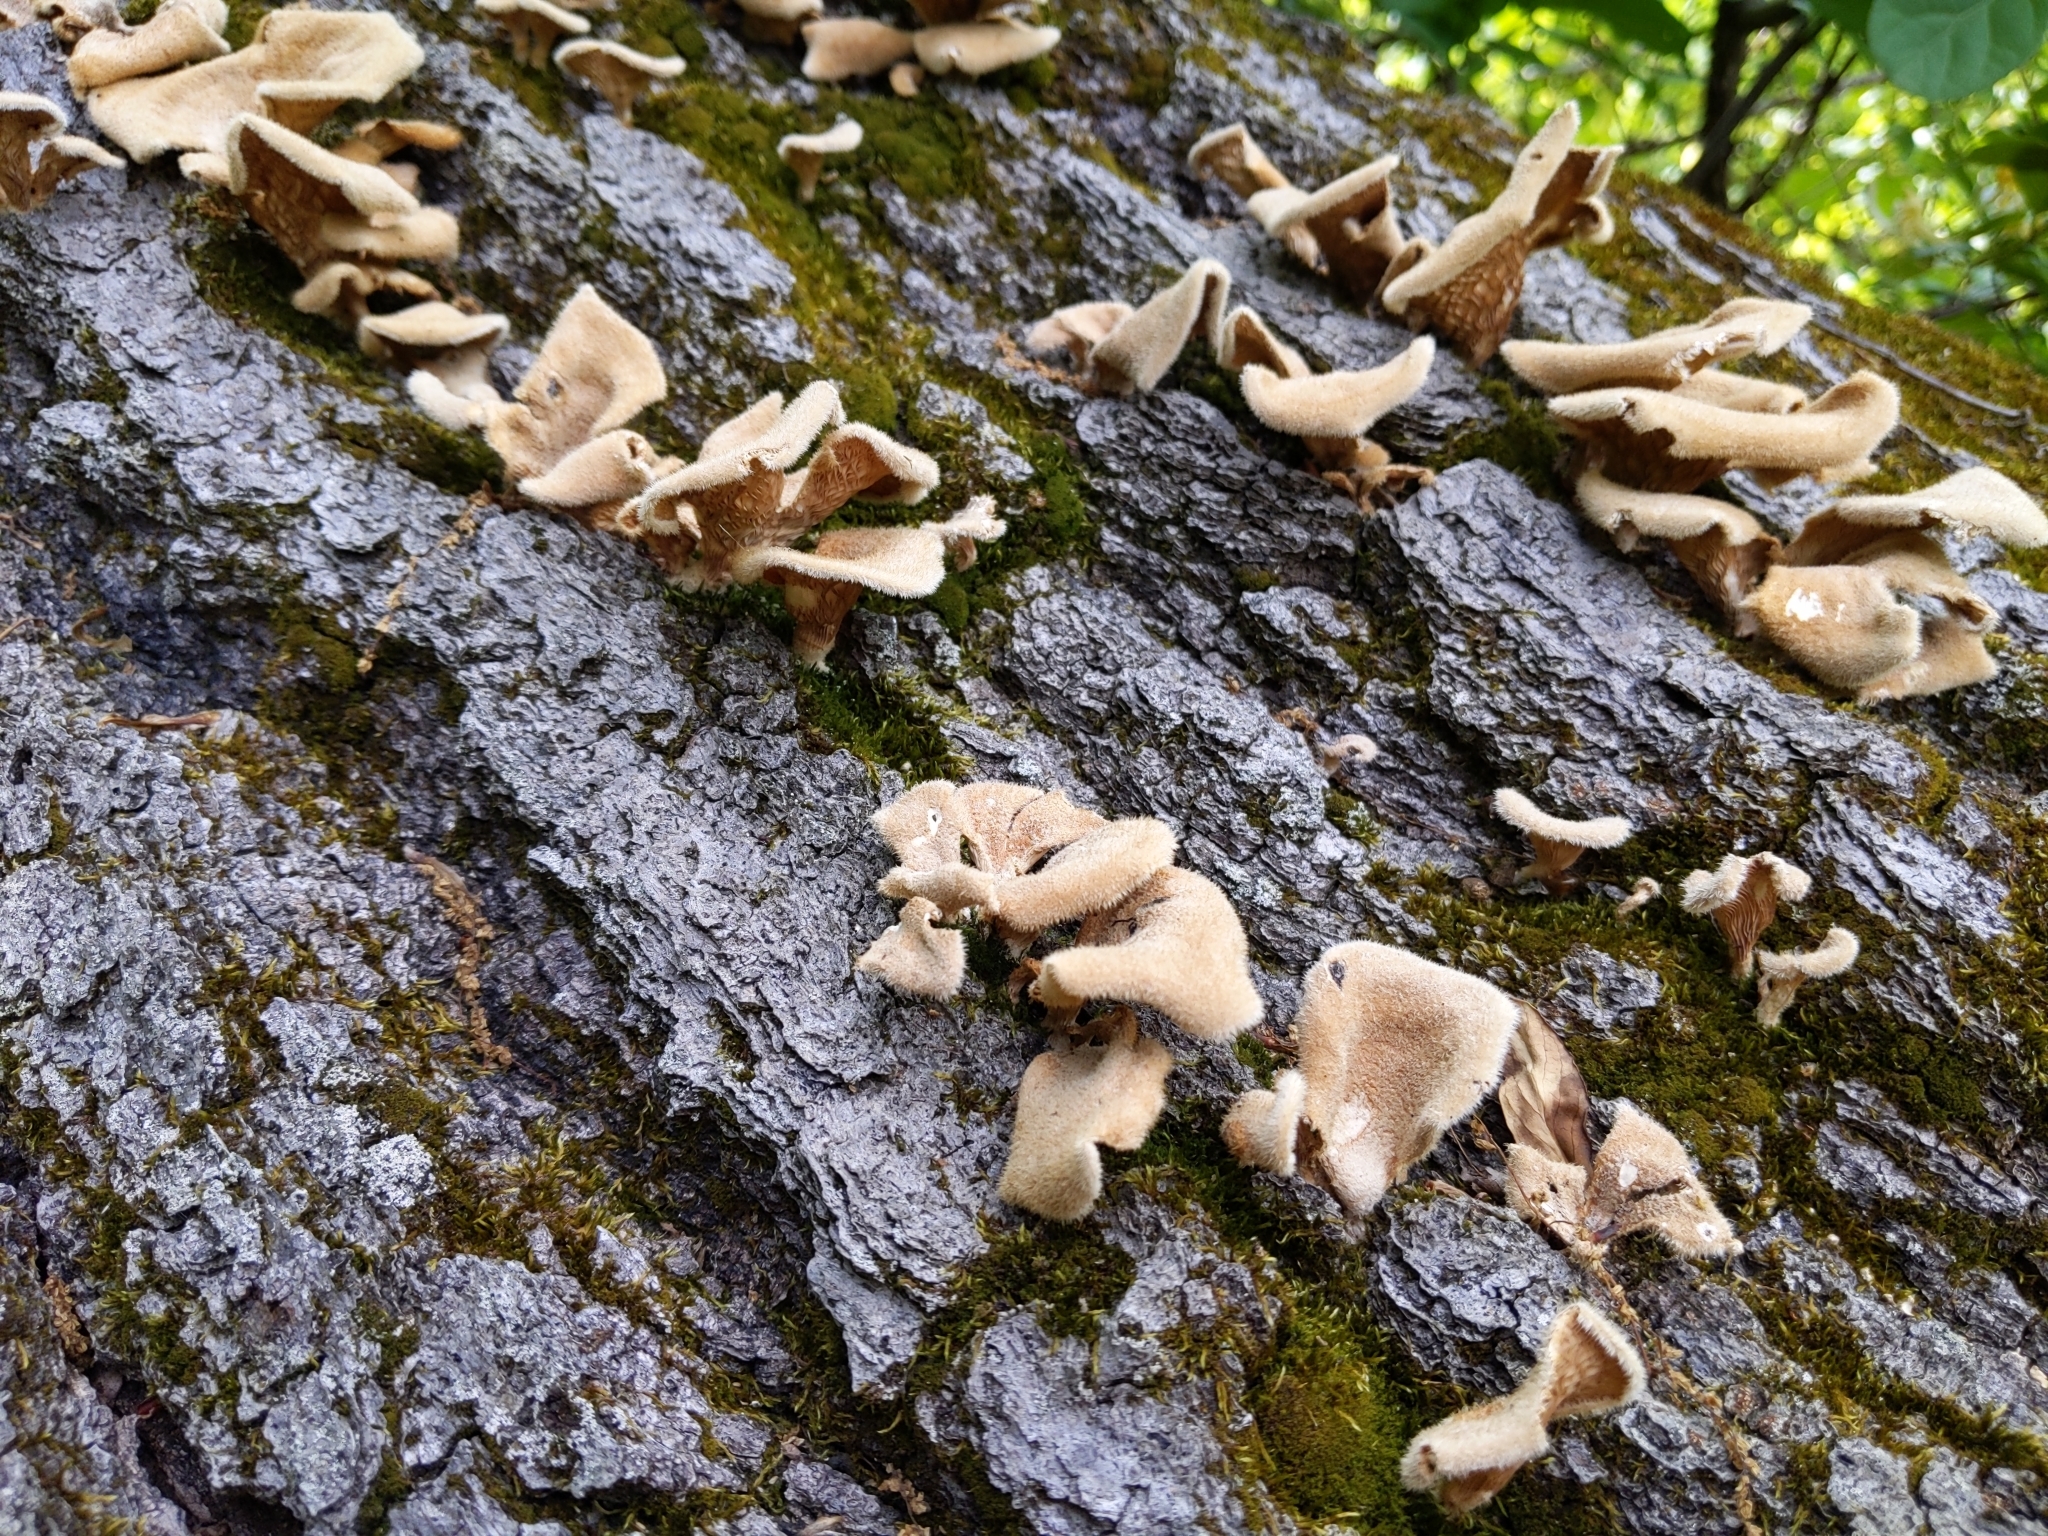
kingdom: Fungi
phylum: Basidiomycota
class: Agaricomycetes
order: Polyporales
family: Panaceae
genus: Panus
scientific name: Panus neostrigosus
